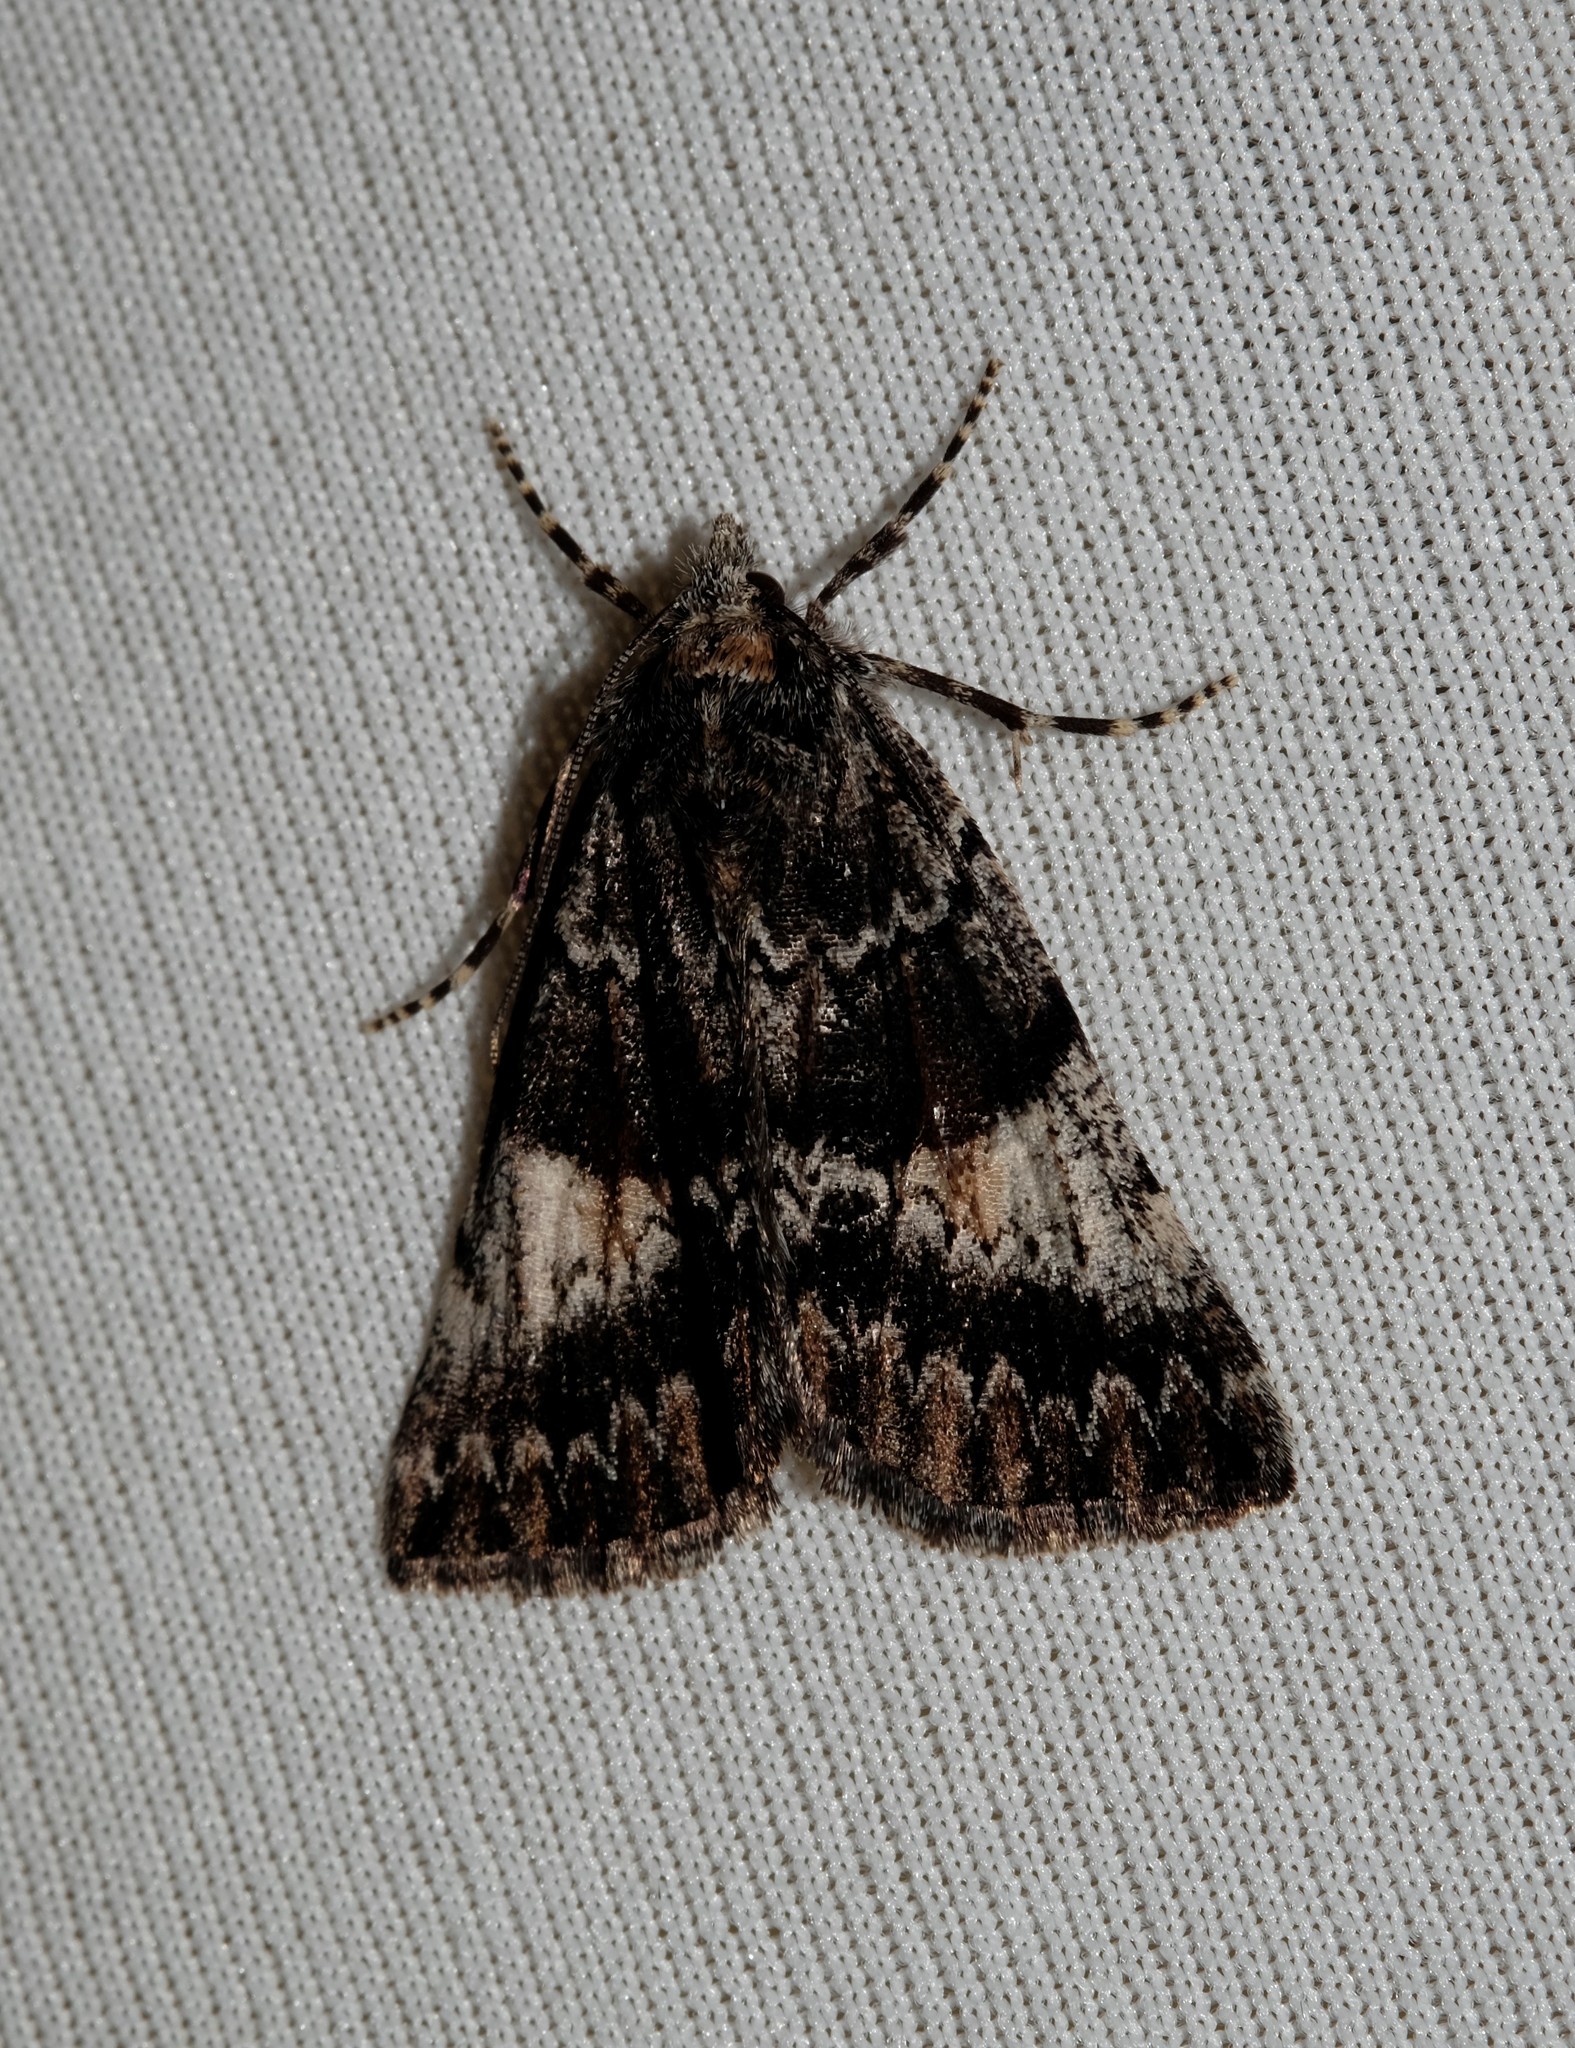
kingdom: Animalia
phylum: Arthropoda
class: Insecta
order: Lepidoptera
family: Geometridae
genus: Smyriodes
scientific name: Smyriodes
